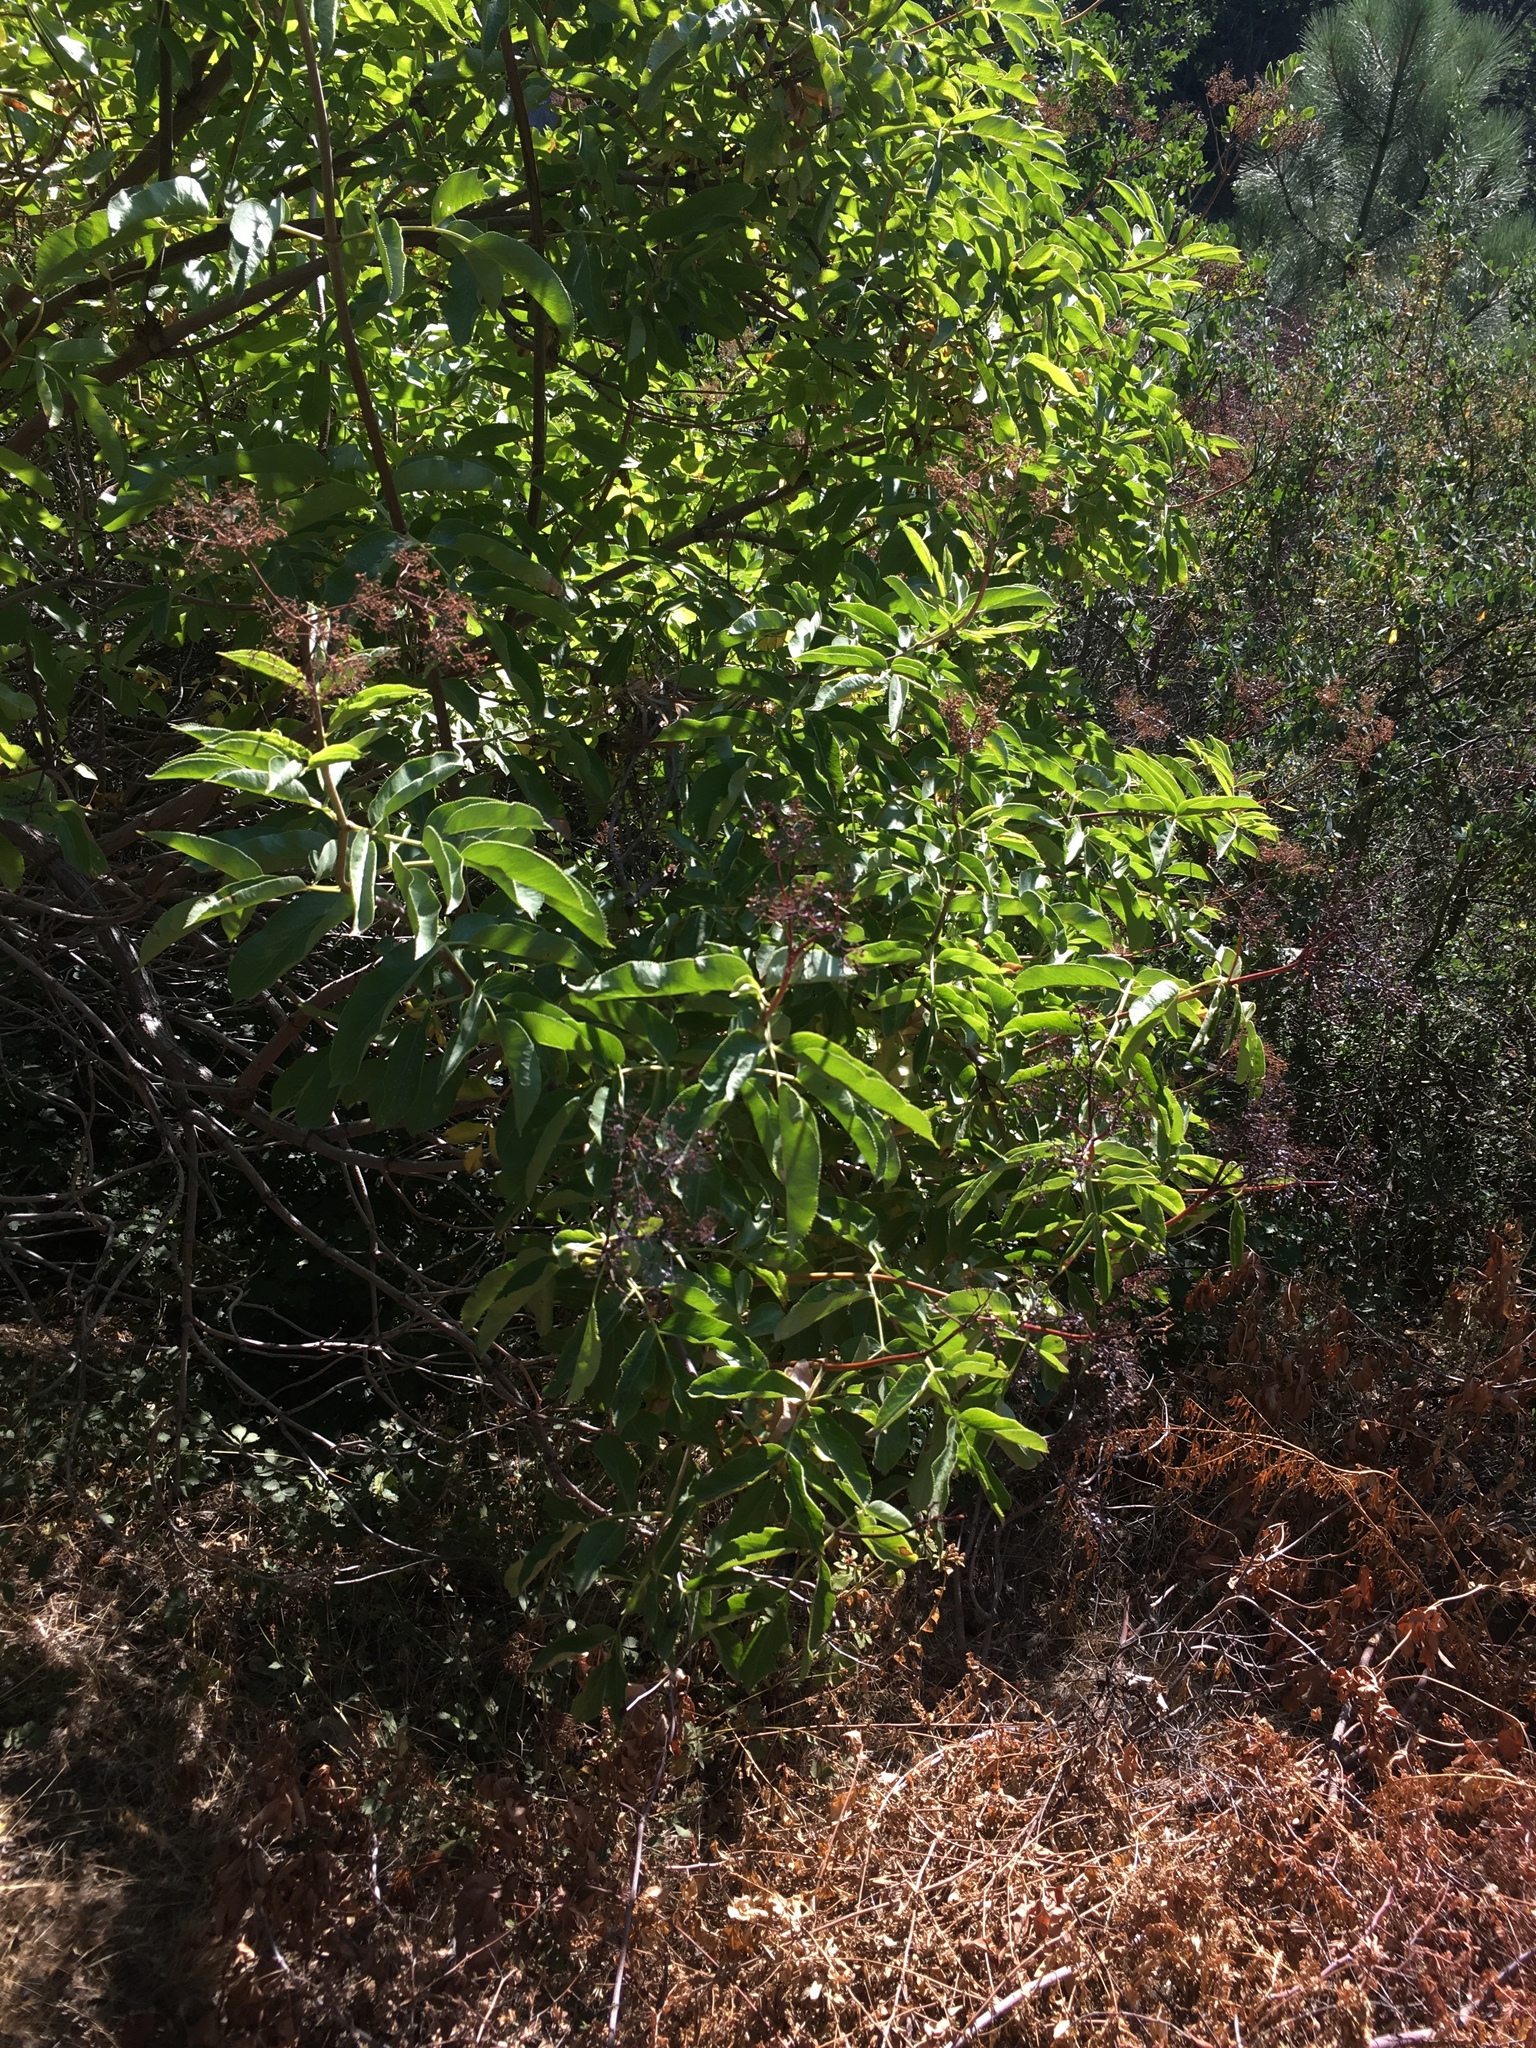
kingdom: Plantae
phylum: Tracheophyta
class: Magnoliopsida
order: Dipsacales
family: Viburnaceae
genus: Sambucus
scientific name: Sambucus cerulea
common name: Blue elder
